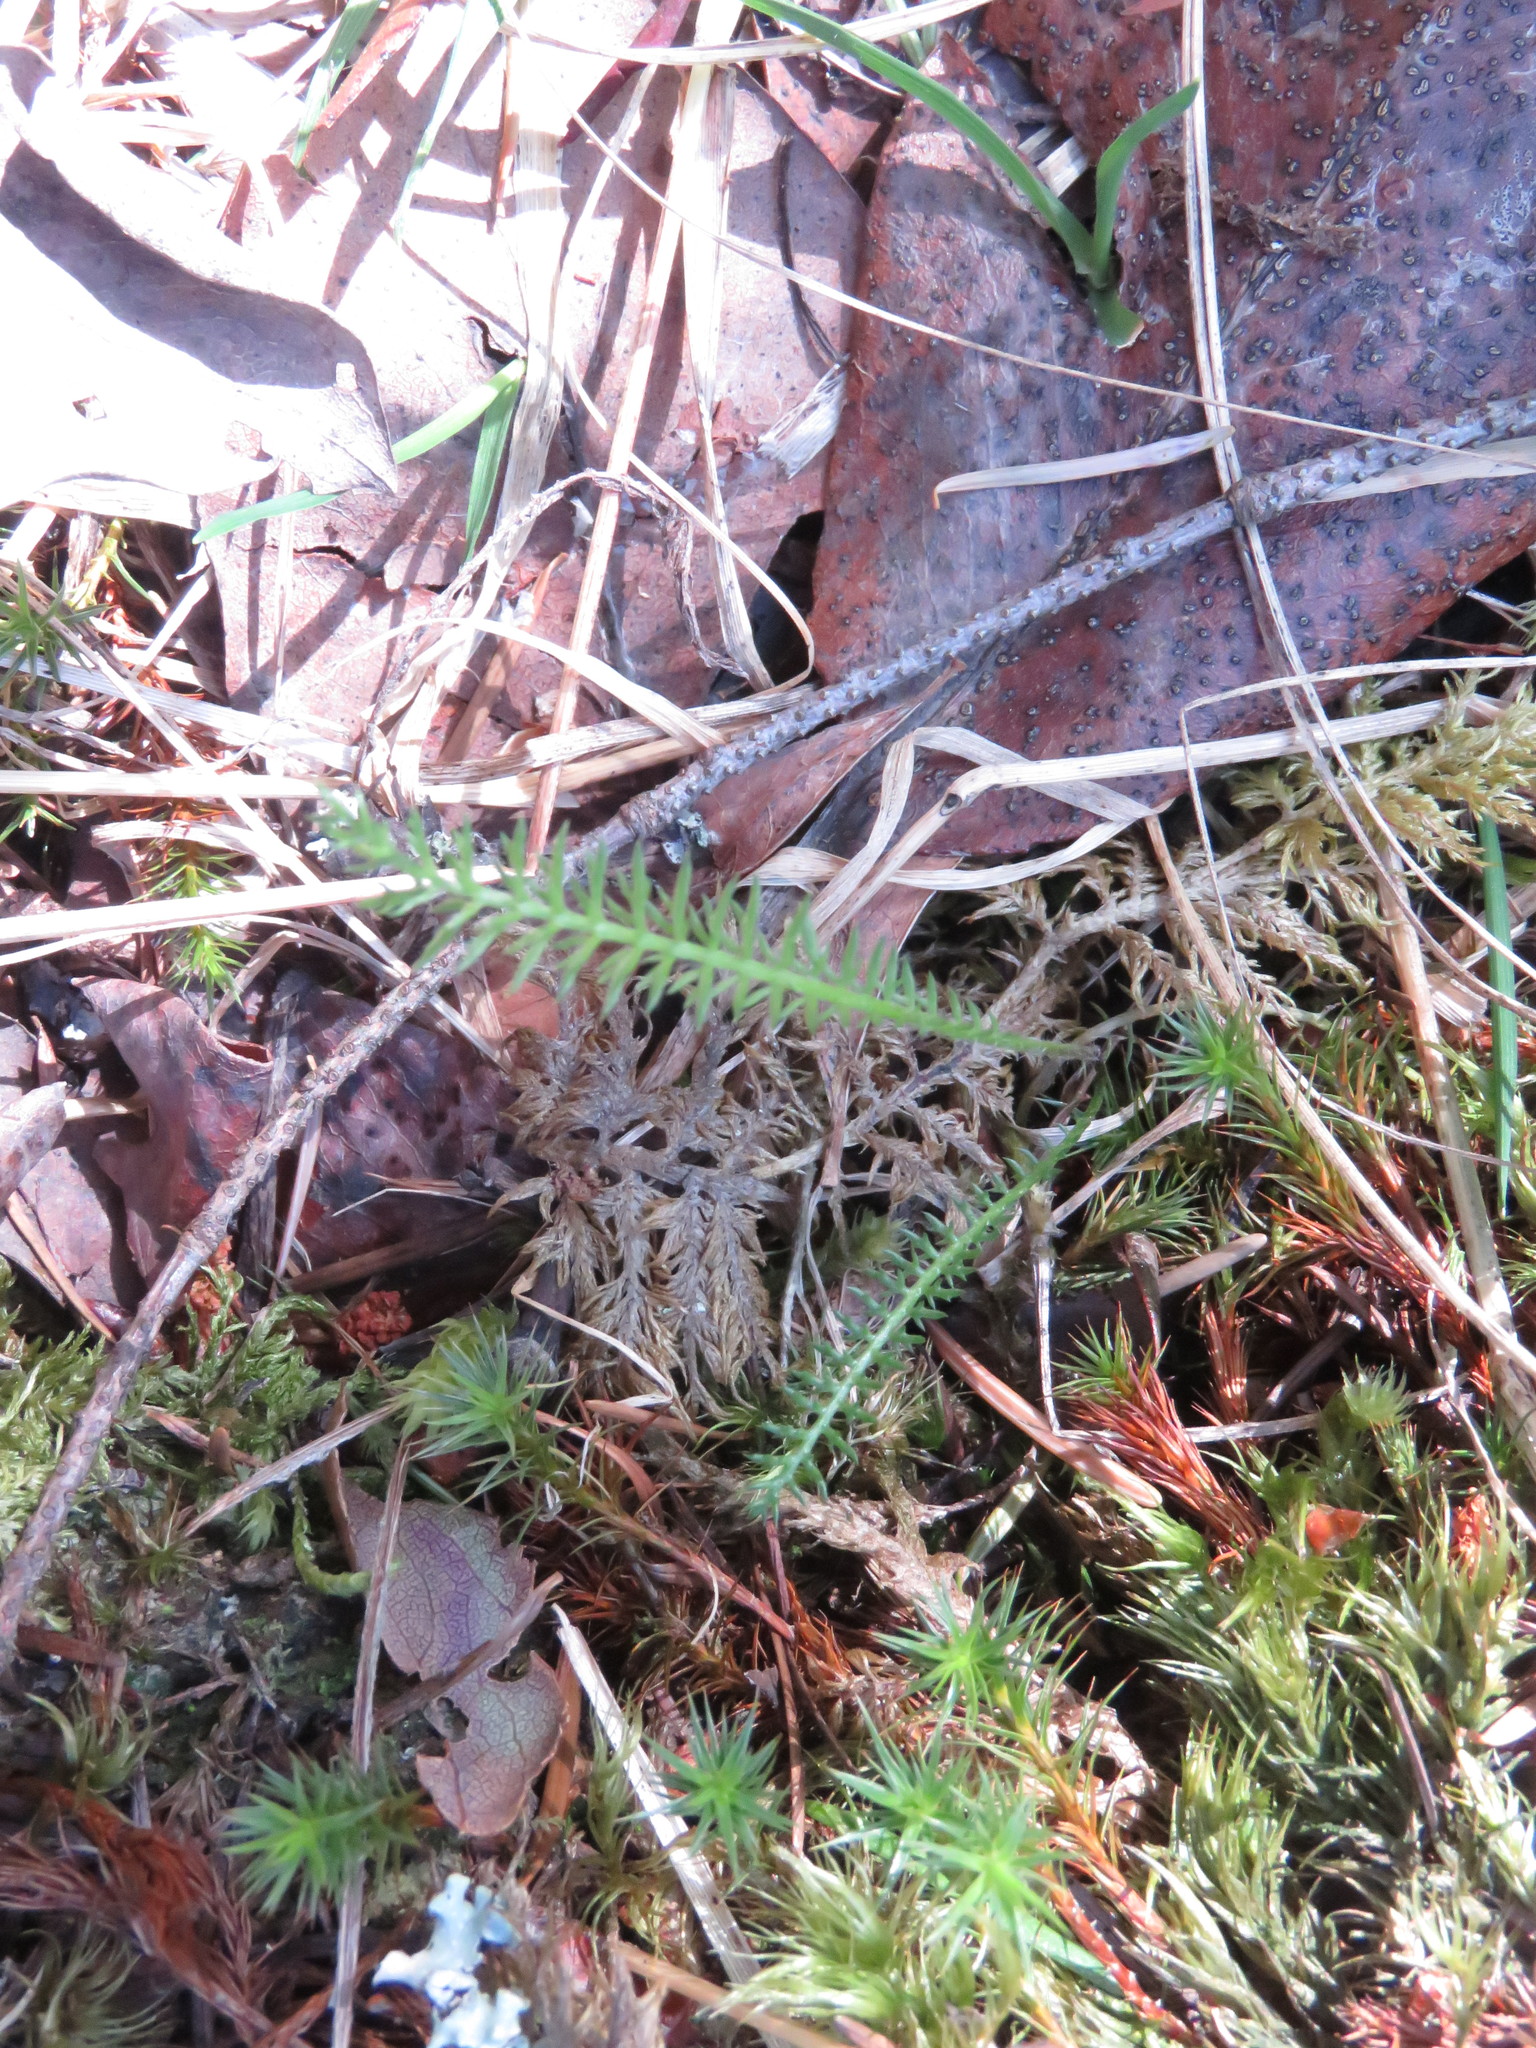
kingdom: Plantae
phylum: Tracheophyta
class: Magnoliopsida
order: Asterales
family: Asteraceae
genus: Achillea
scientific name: Achillea millefolium
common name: Yarrow
